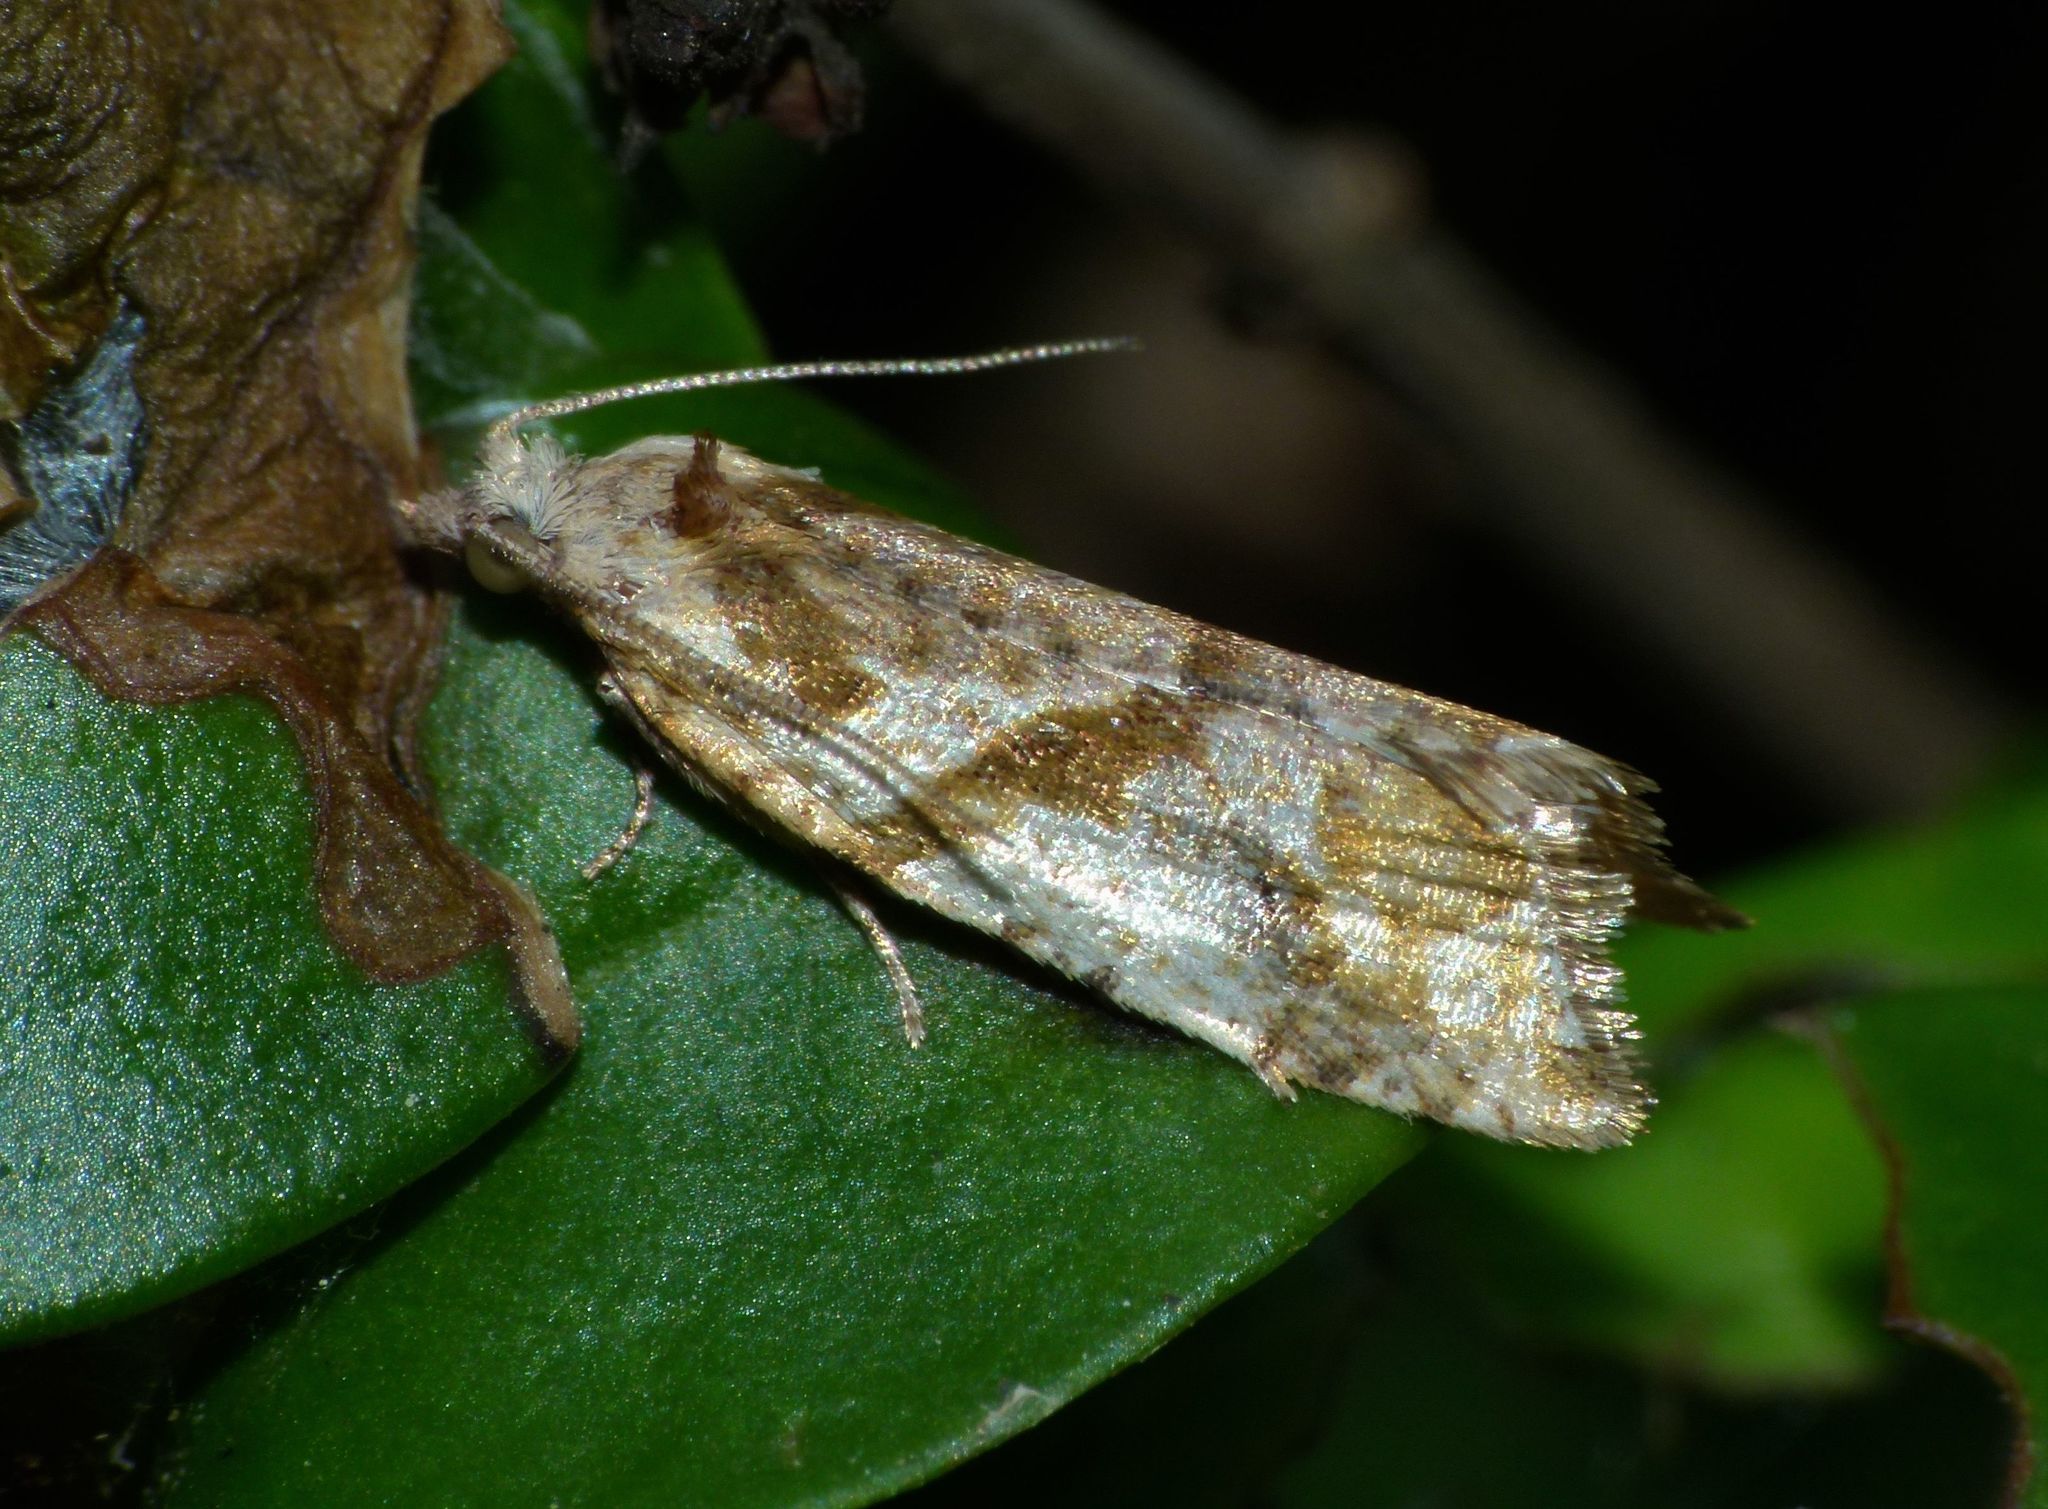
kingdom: Animalia
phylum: Arthropoda
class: Insecta
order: Lepidoptera
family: Tortricidae
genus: Pyrgotis
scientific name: Pyrgotis plagiatana
